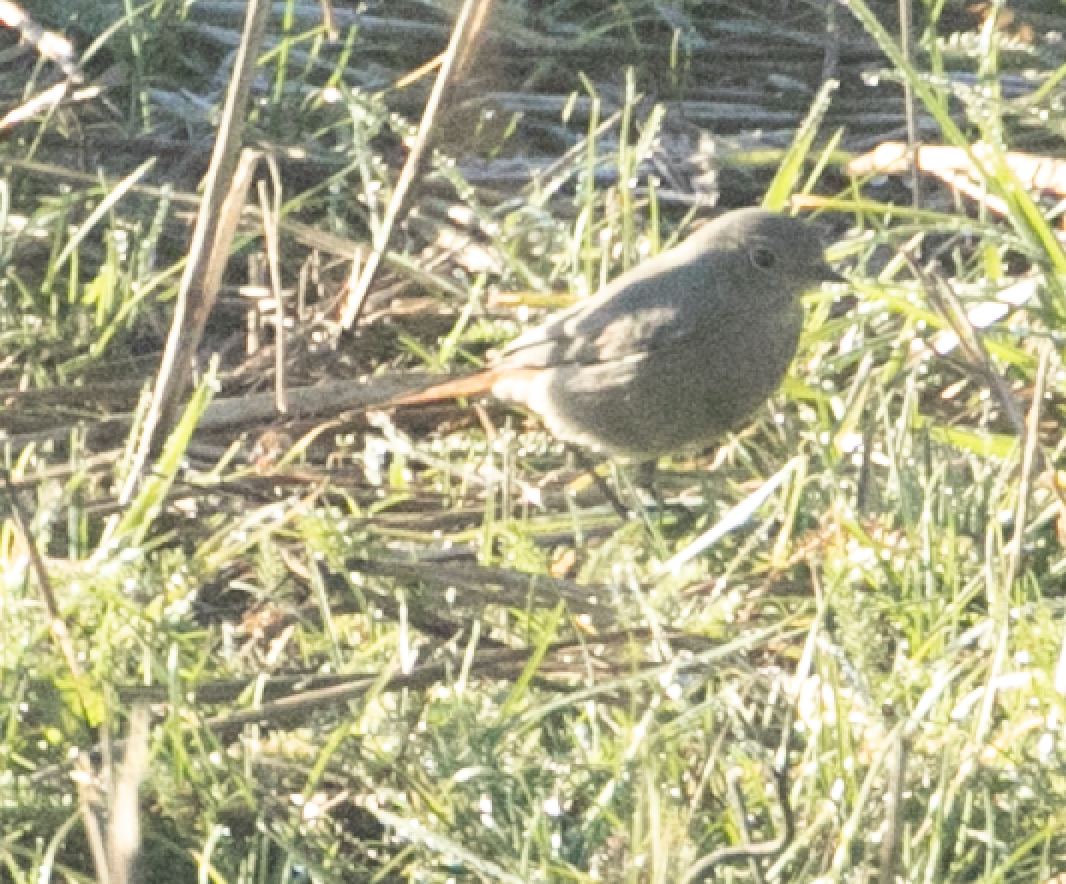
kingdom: Animalia
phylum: Chordata
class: Aves
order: Passeriformes
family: Muscicapidae
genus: Phoenicurus
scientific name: Phoenicurus ochruros
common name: Black redstart
